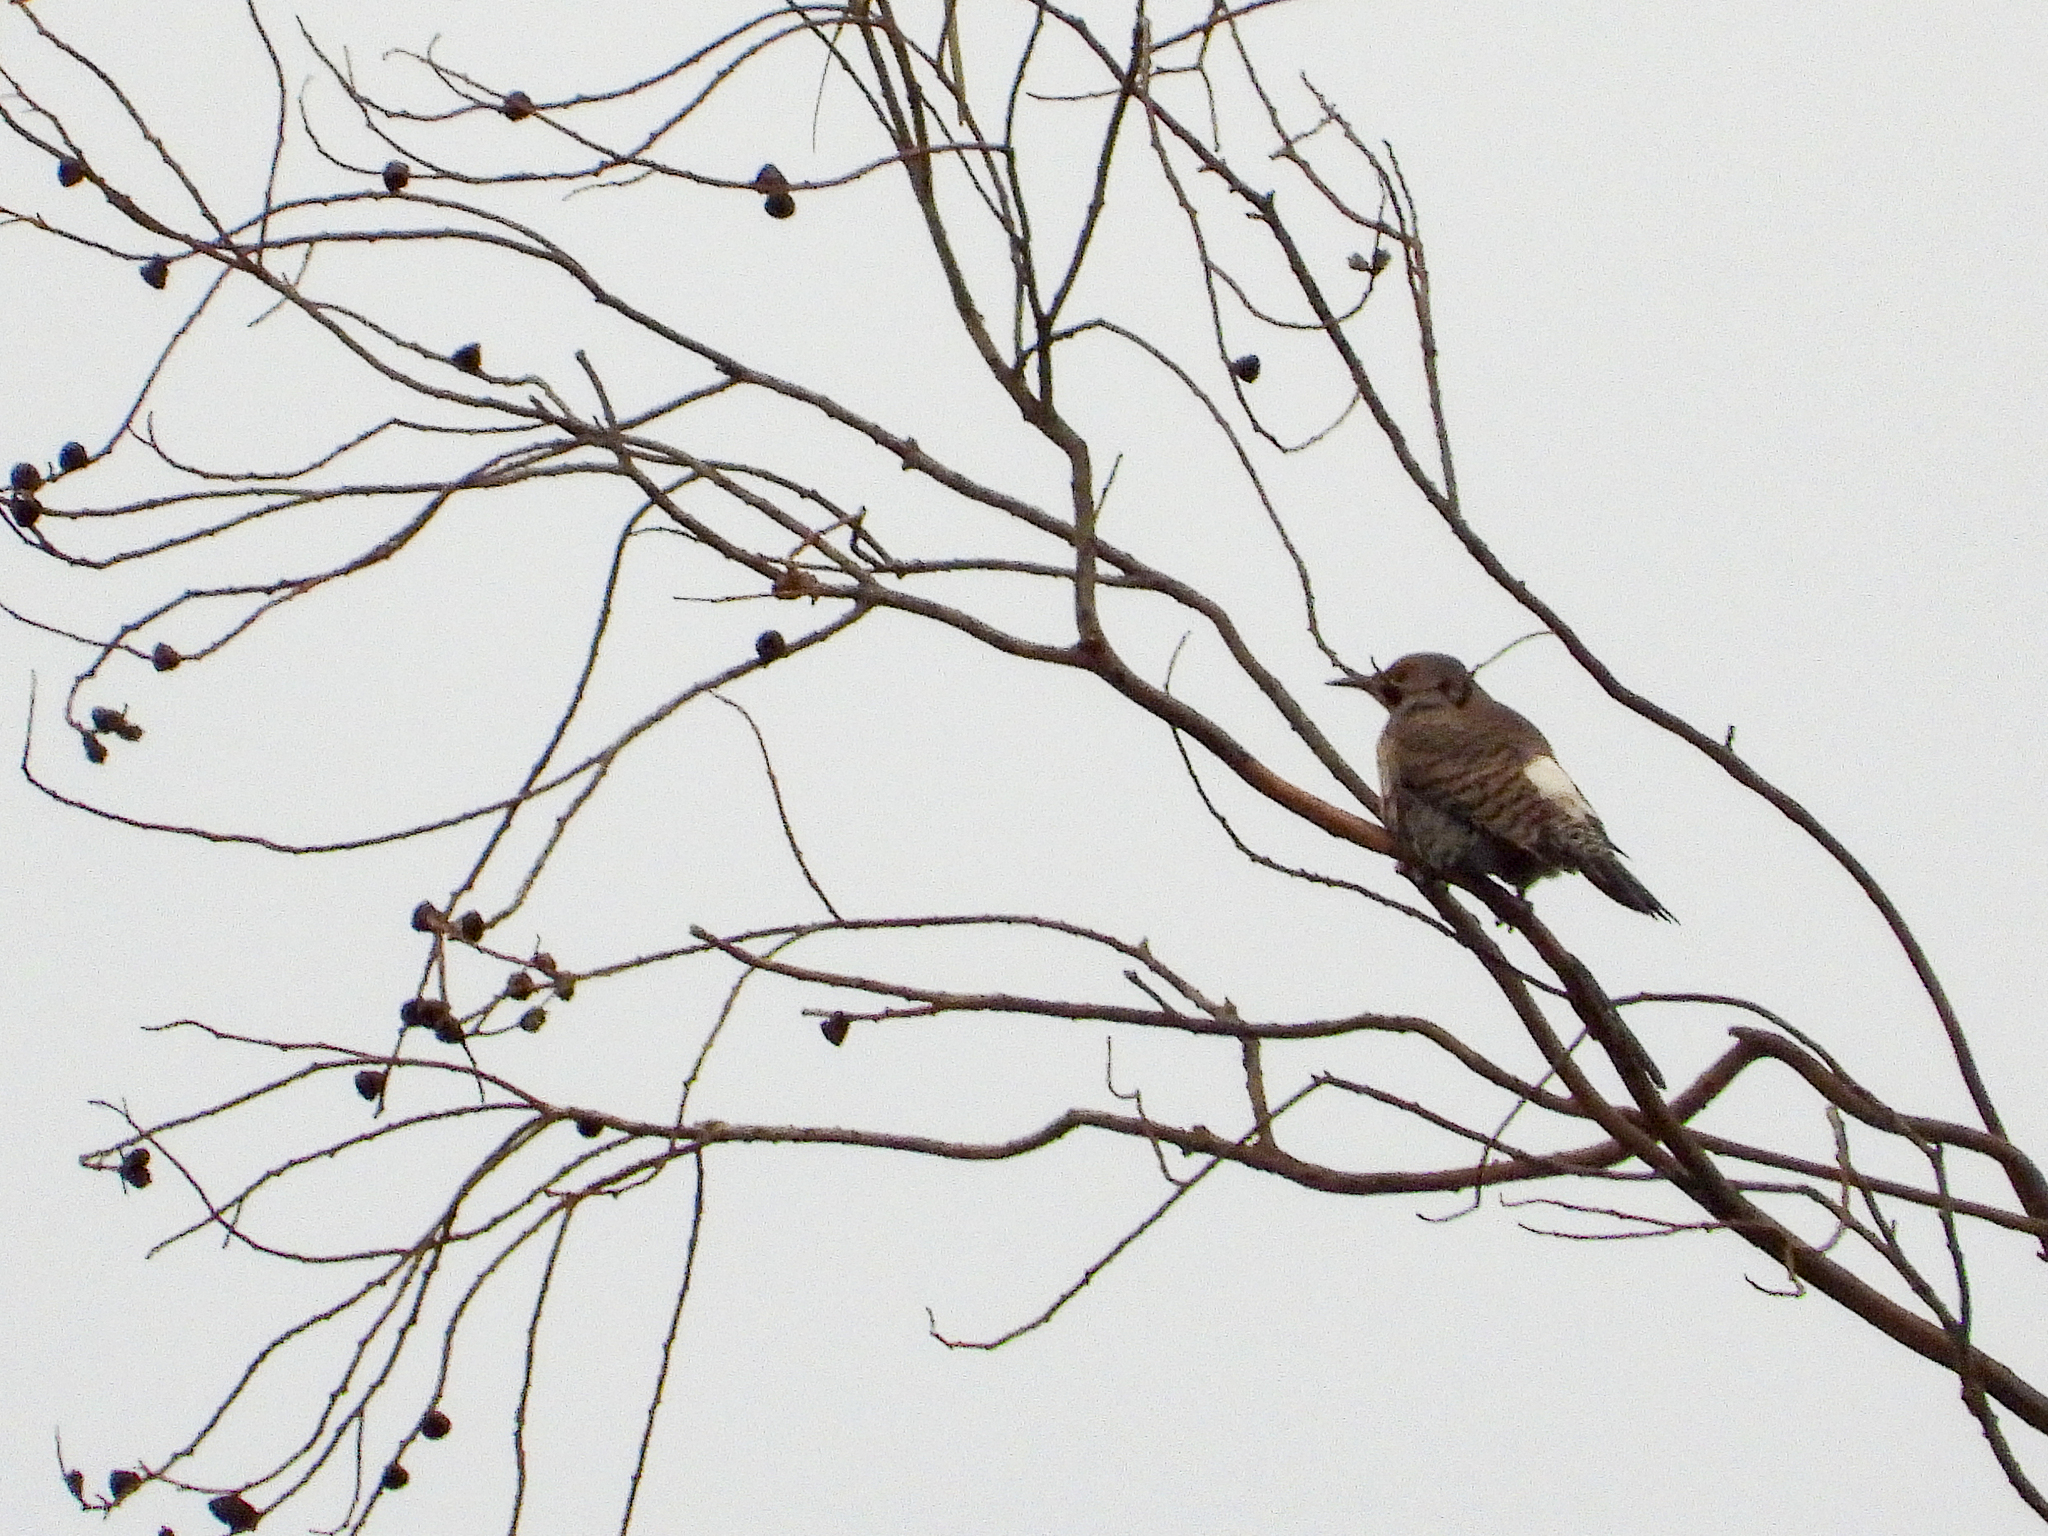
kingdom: Animalia
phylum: Chordata
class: Aves
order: Piciformes
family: Picidae
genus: Colaptes
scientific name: Colaptes auratus
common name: Northern flicker
